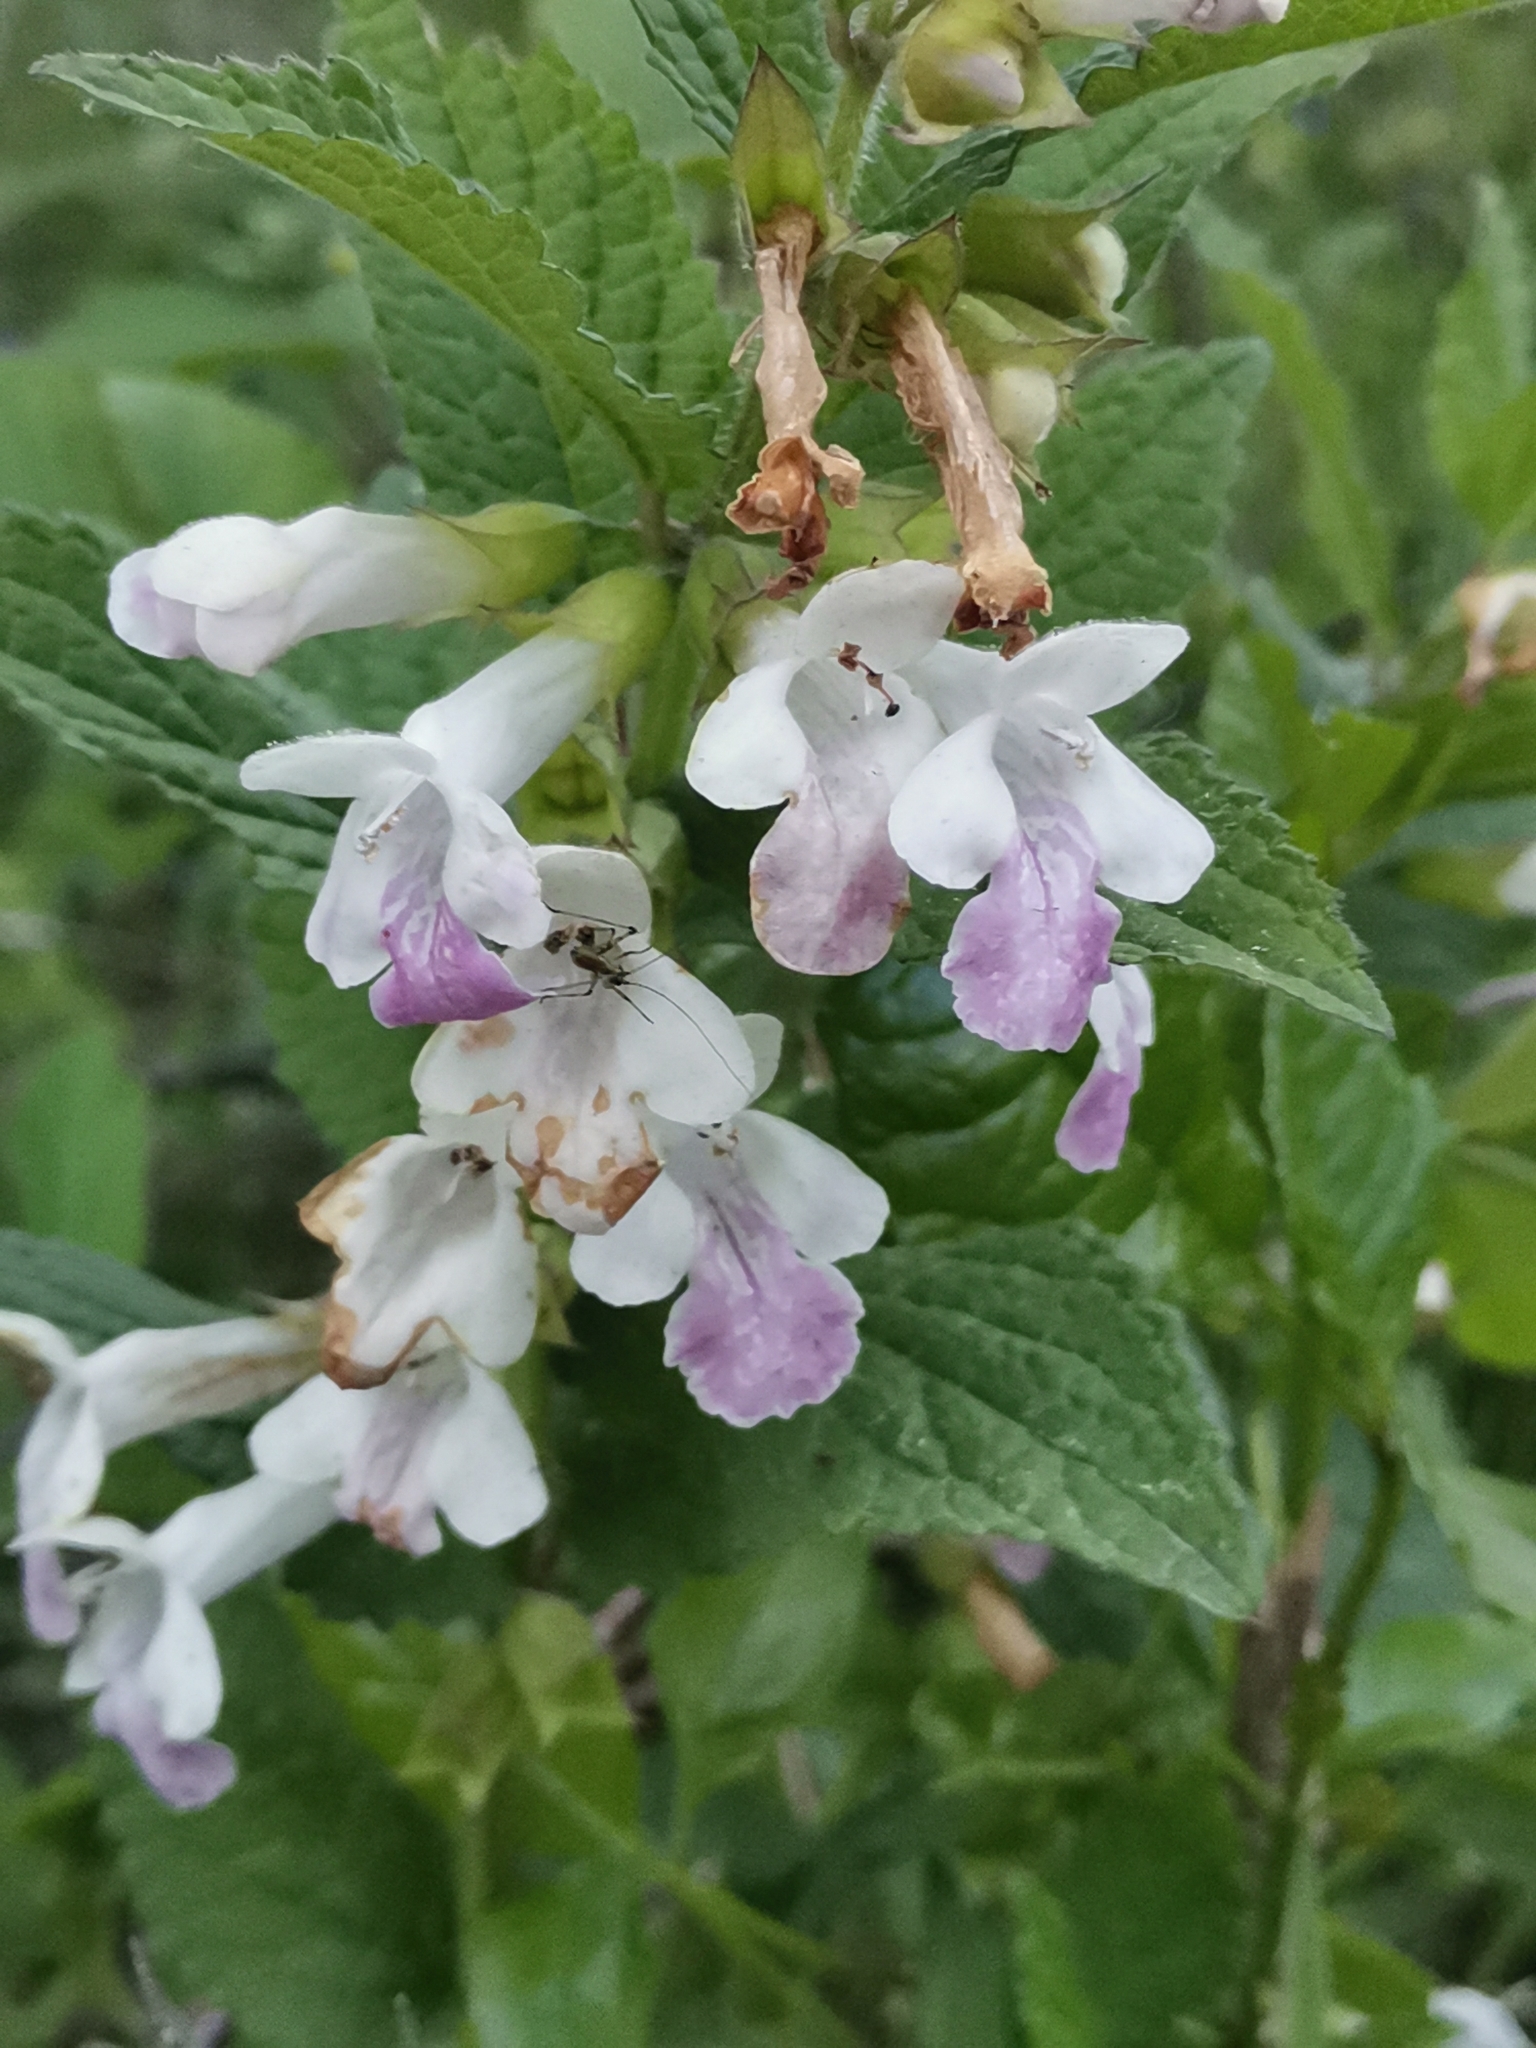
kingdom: Plantae
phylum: Tracheophyta
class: Magnoliopsida
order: Lamiales
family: Lamiaceae
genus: Melittis
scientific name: Melittis melissophyllum
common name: Bastard balm
